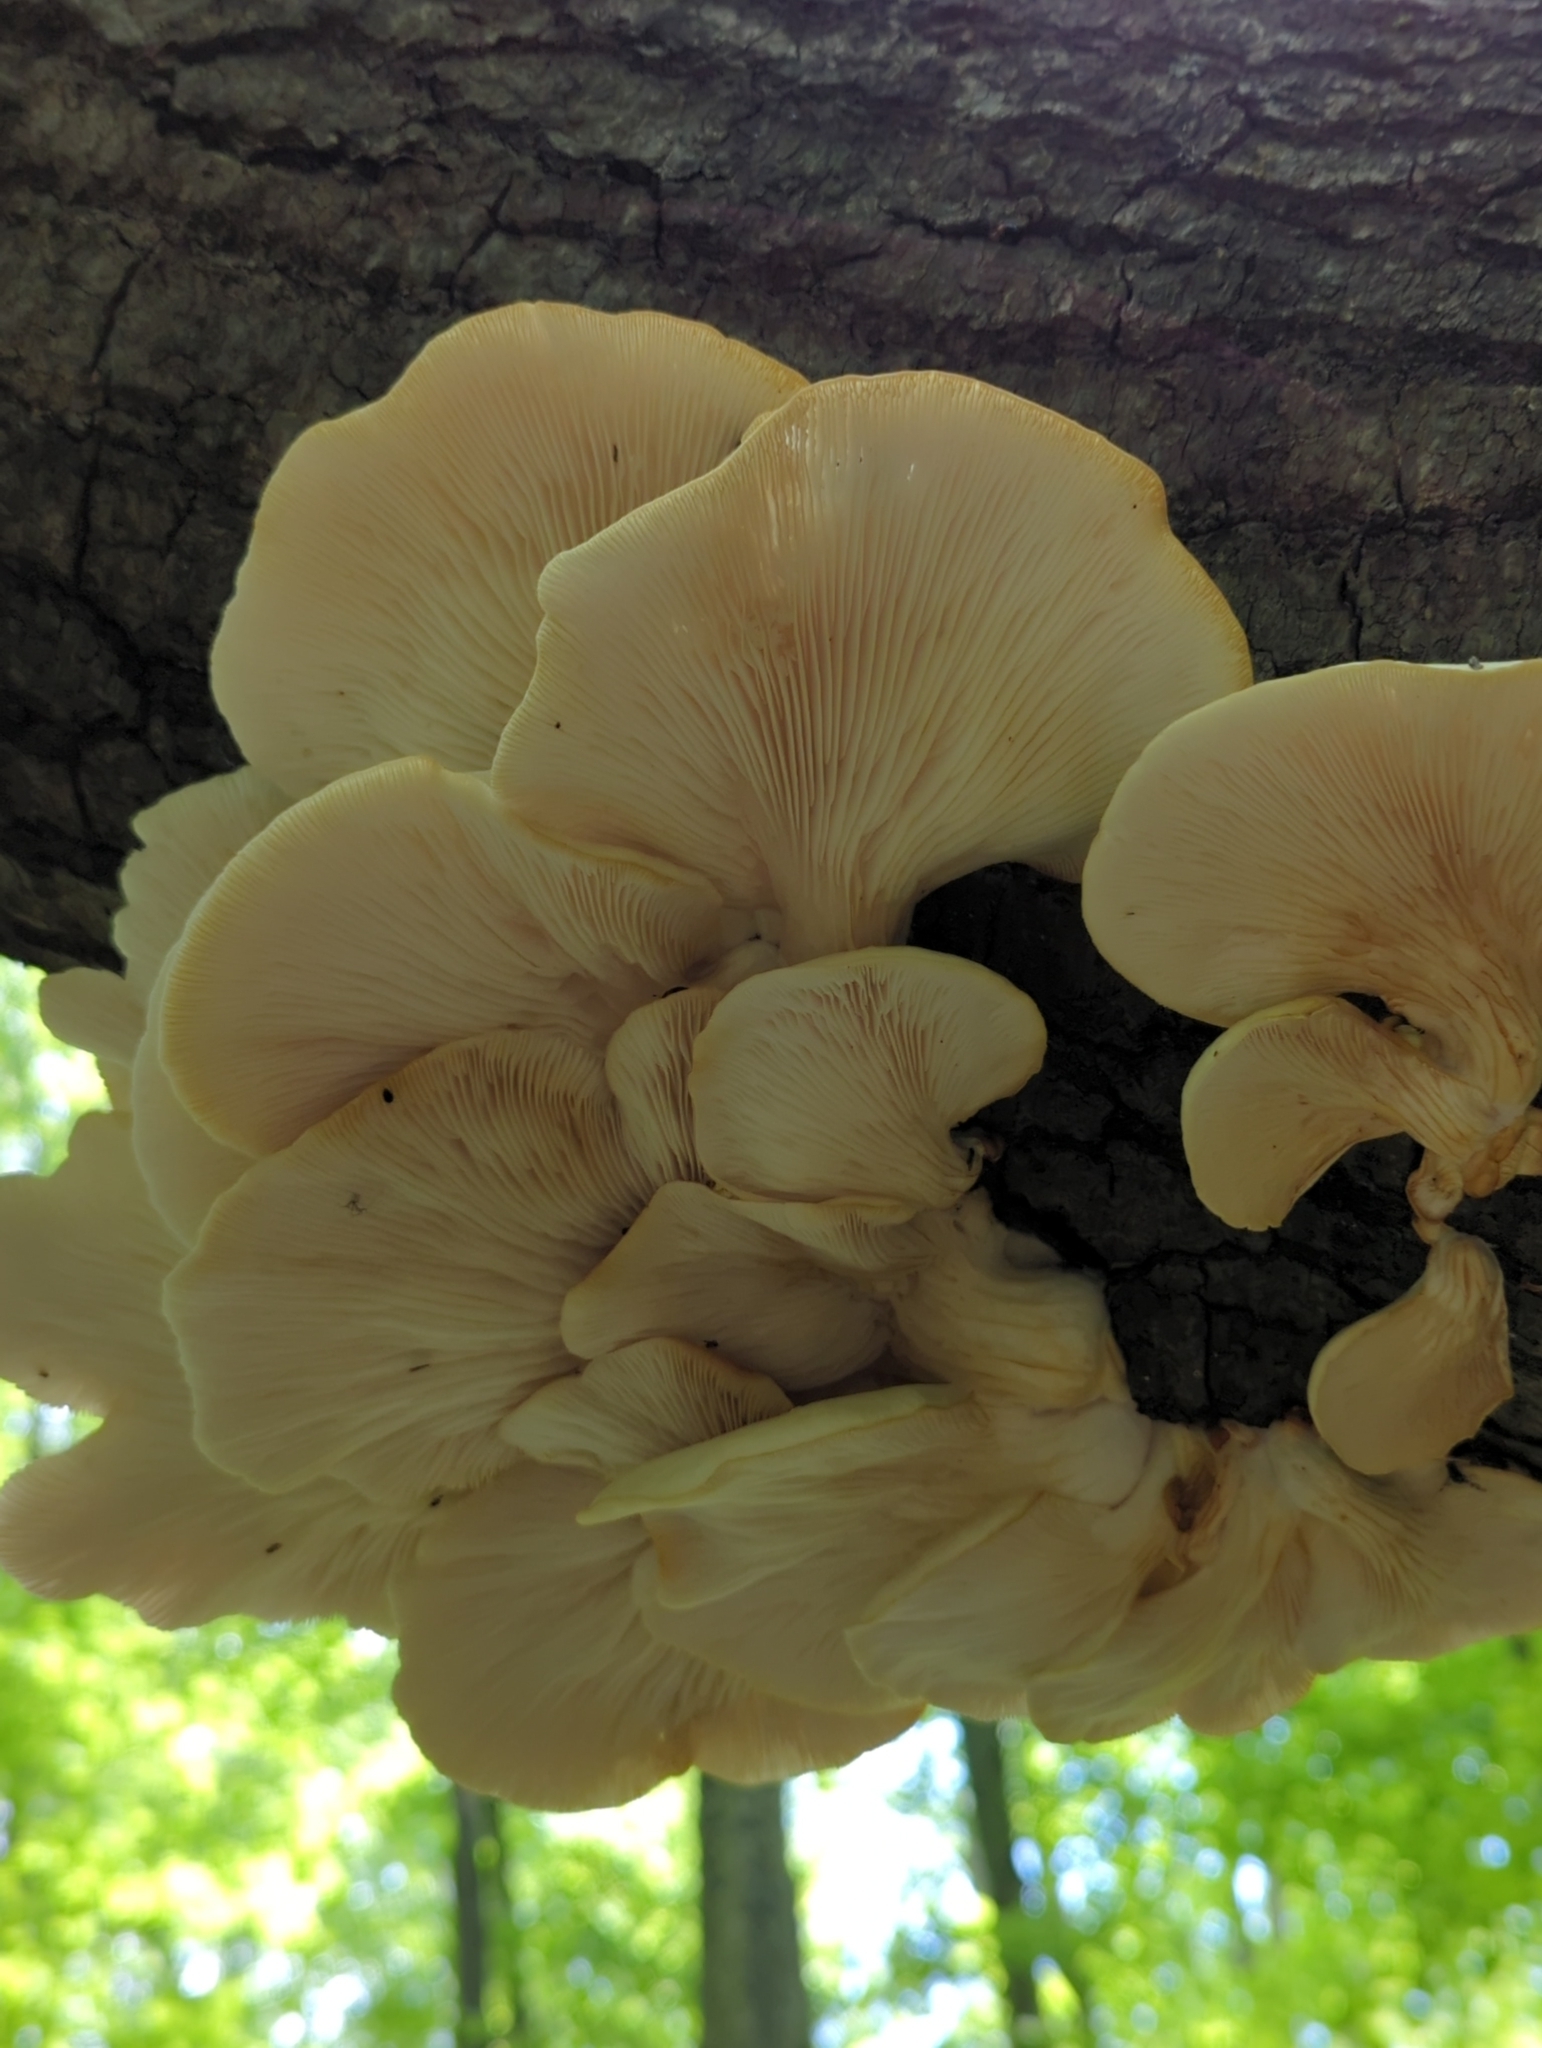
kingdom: Fungi
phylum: Basidiomycota
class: Agaricomycetes
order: Agaricales
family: Pleurotaceae
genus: Pleurotus
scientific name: Pleurotus populinus
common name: Aspen oyster mushroom
